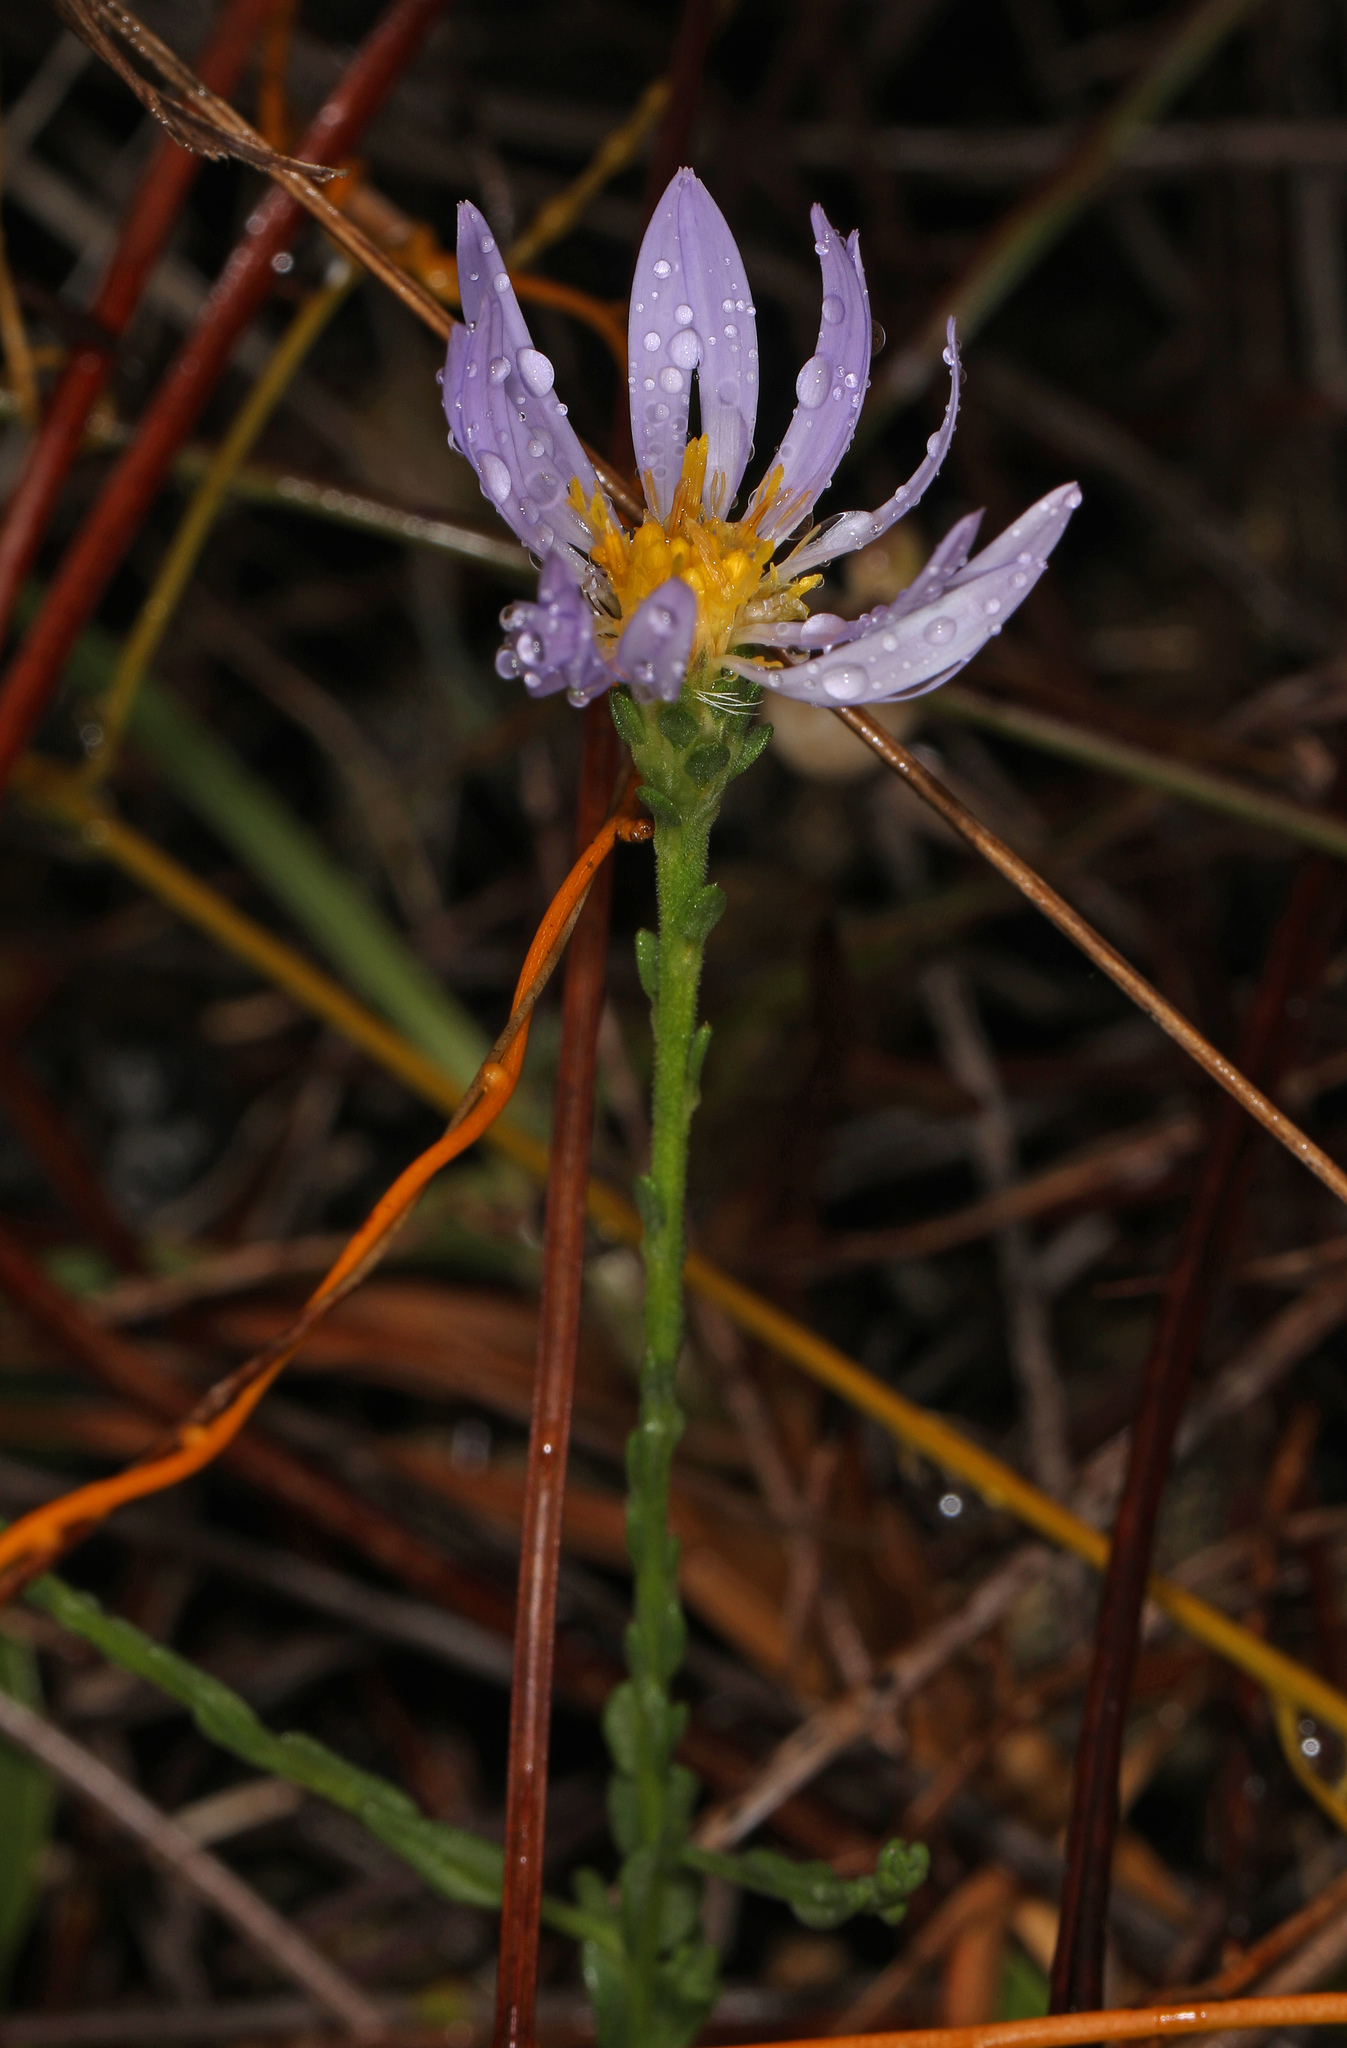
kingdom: Plantae
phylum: Tracheophyta
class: Magnoliopsida
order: Asterales
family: Asteraceae
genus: Symphyotrichum
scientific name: Symphyotrichum adnatum
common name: Scale-leaf aster
